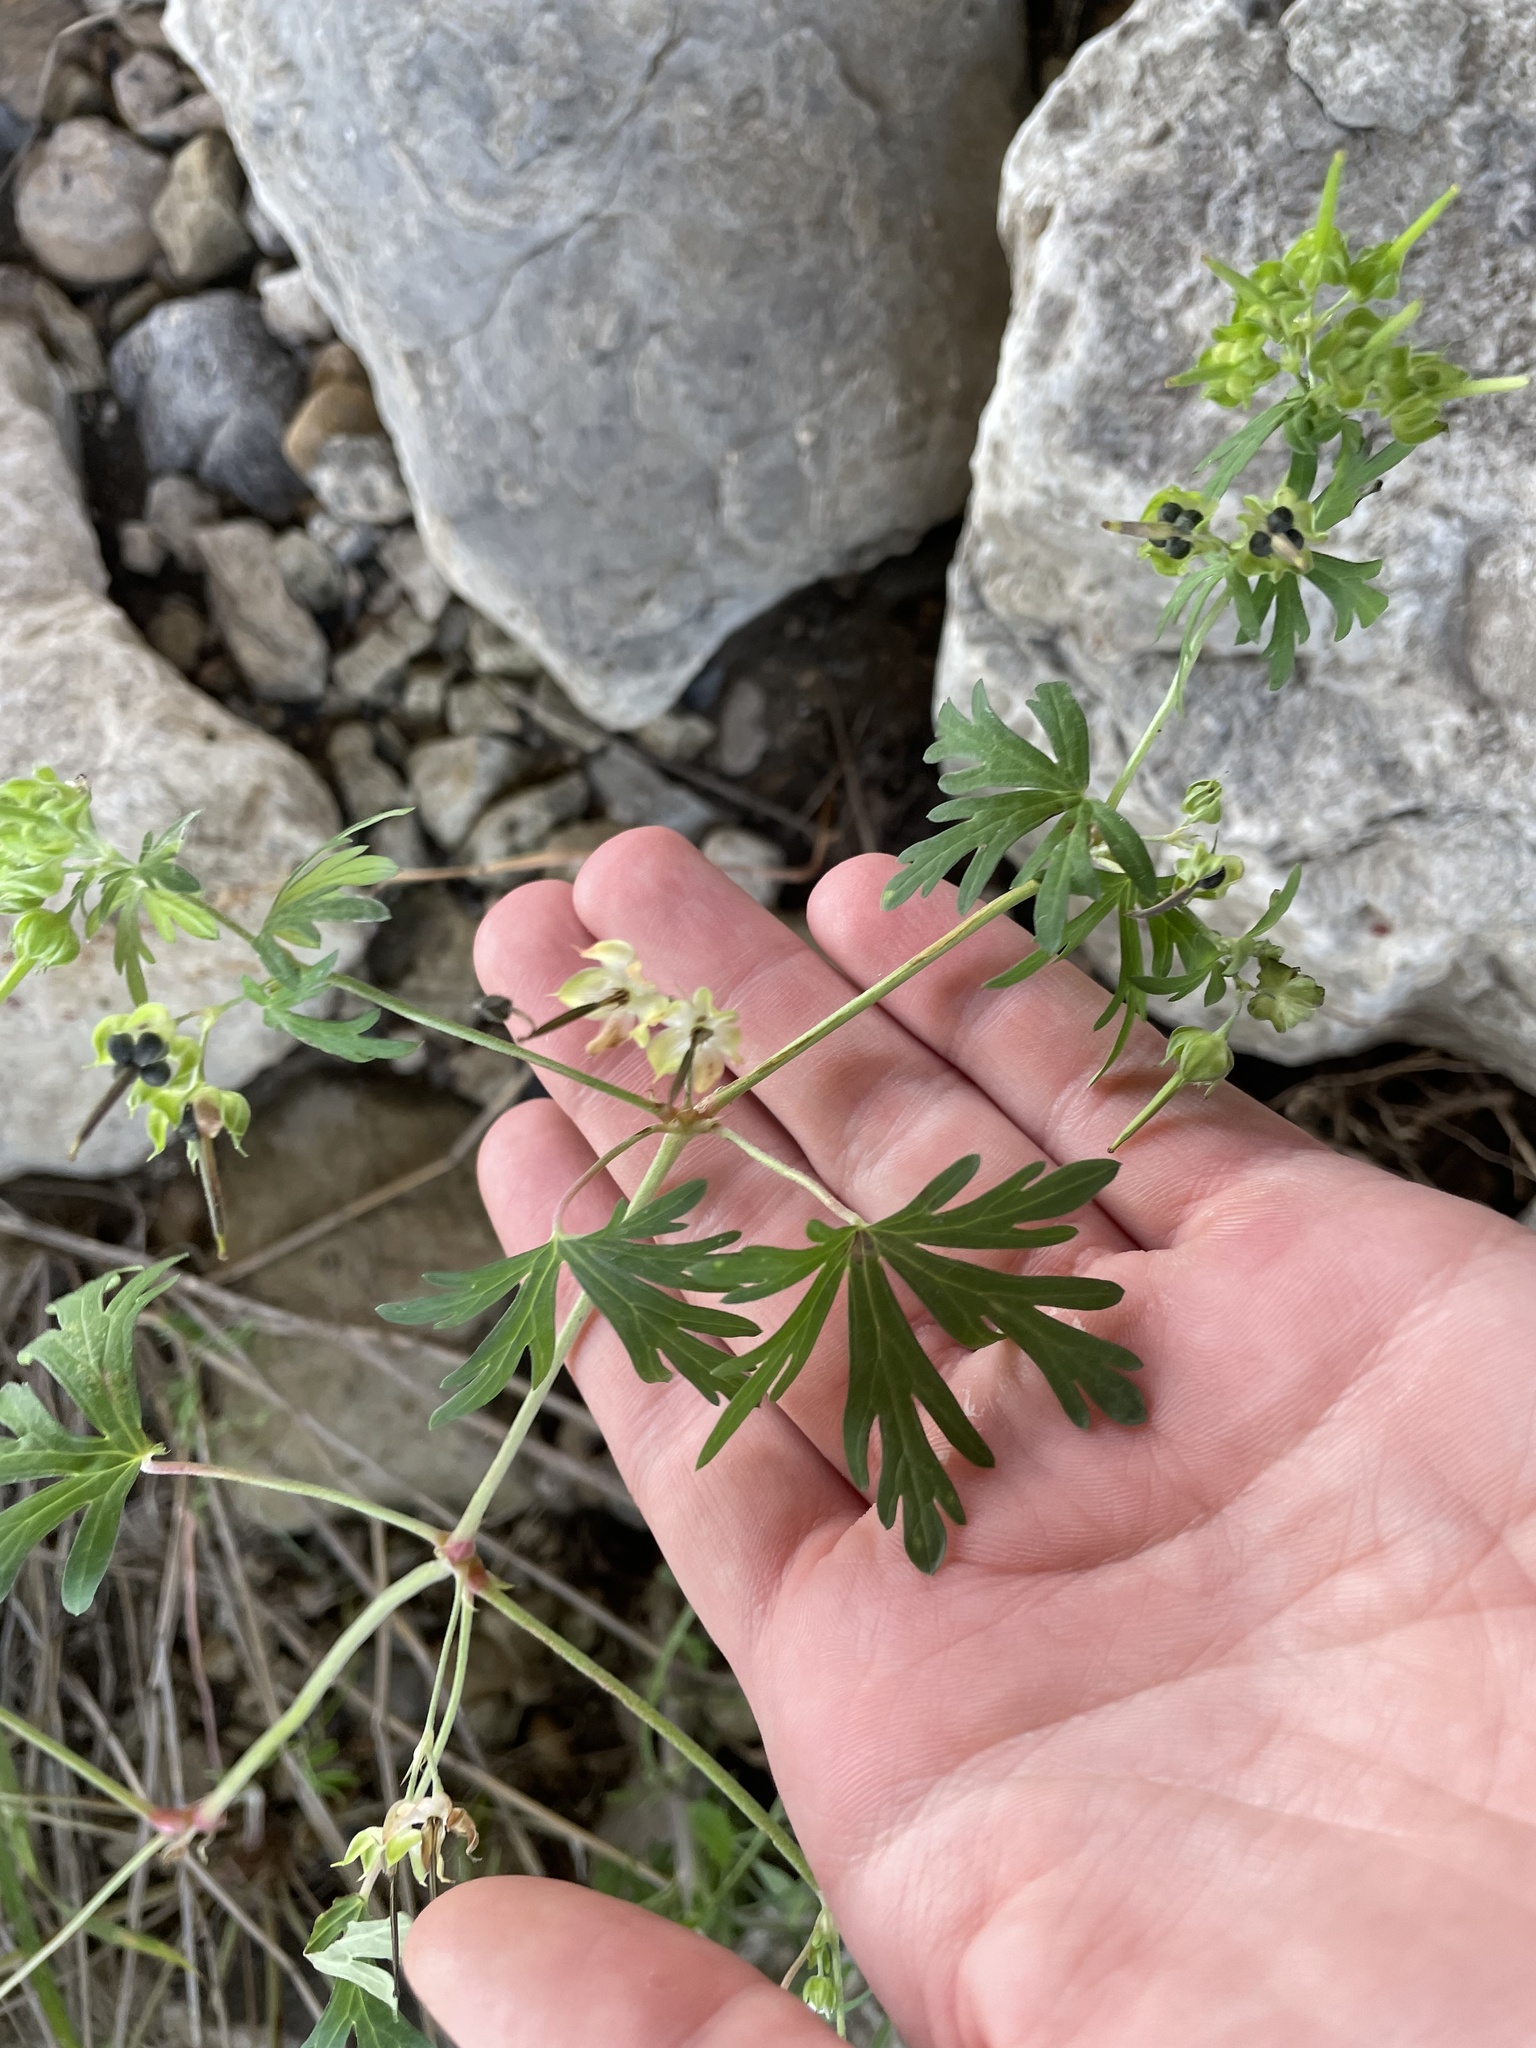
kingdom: Plantae
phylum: Tracheophyta
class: Magnoliopsida
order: Geraniales
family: Geraniaceae
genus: Geranium
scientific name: Geranium carolinianum
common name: Carolina crane's-bill
